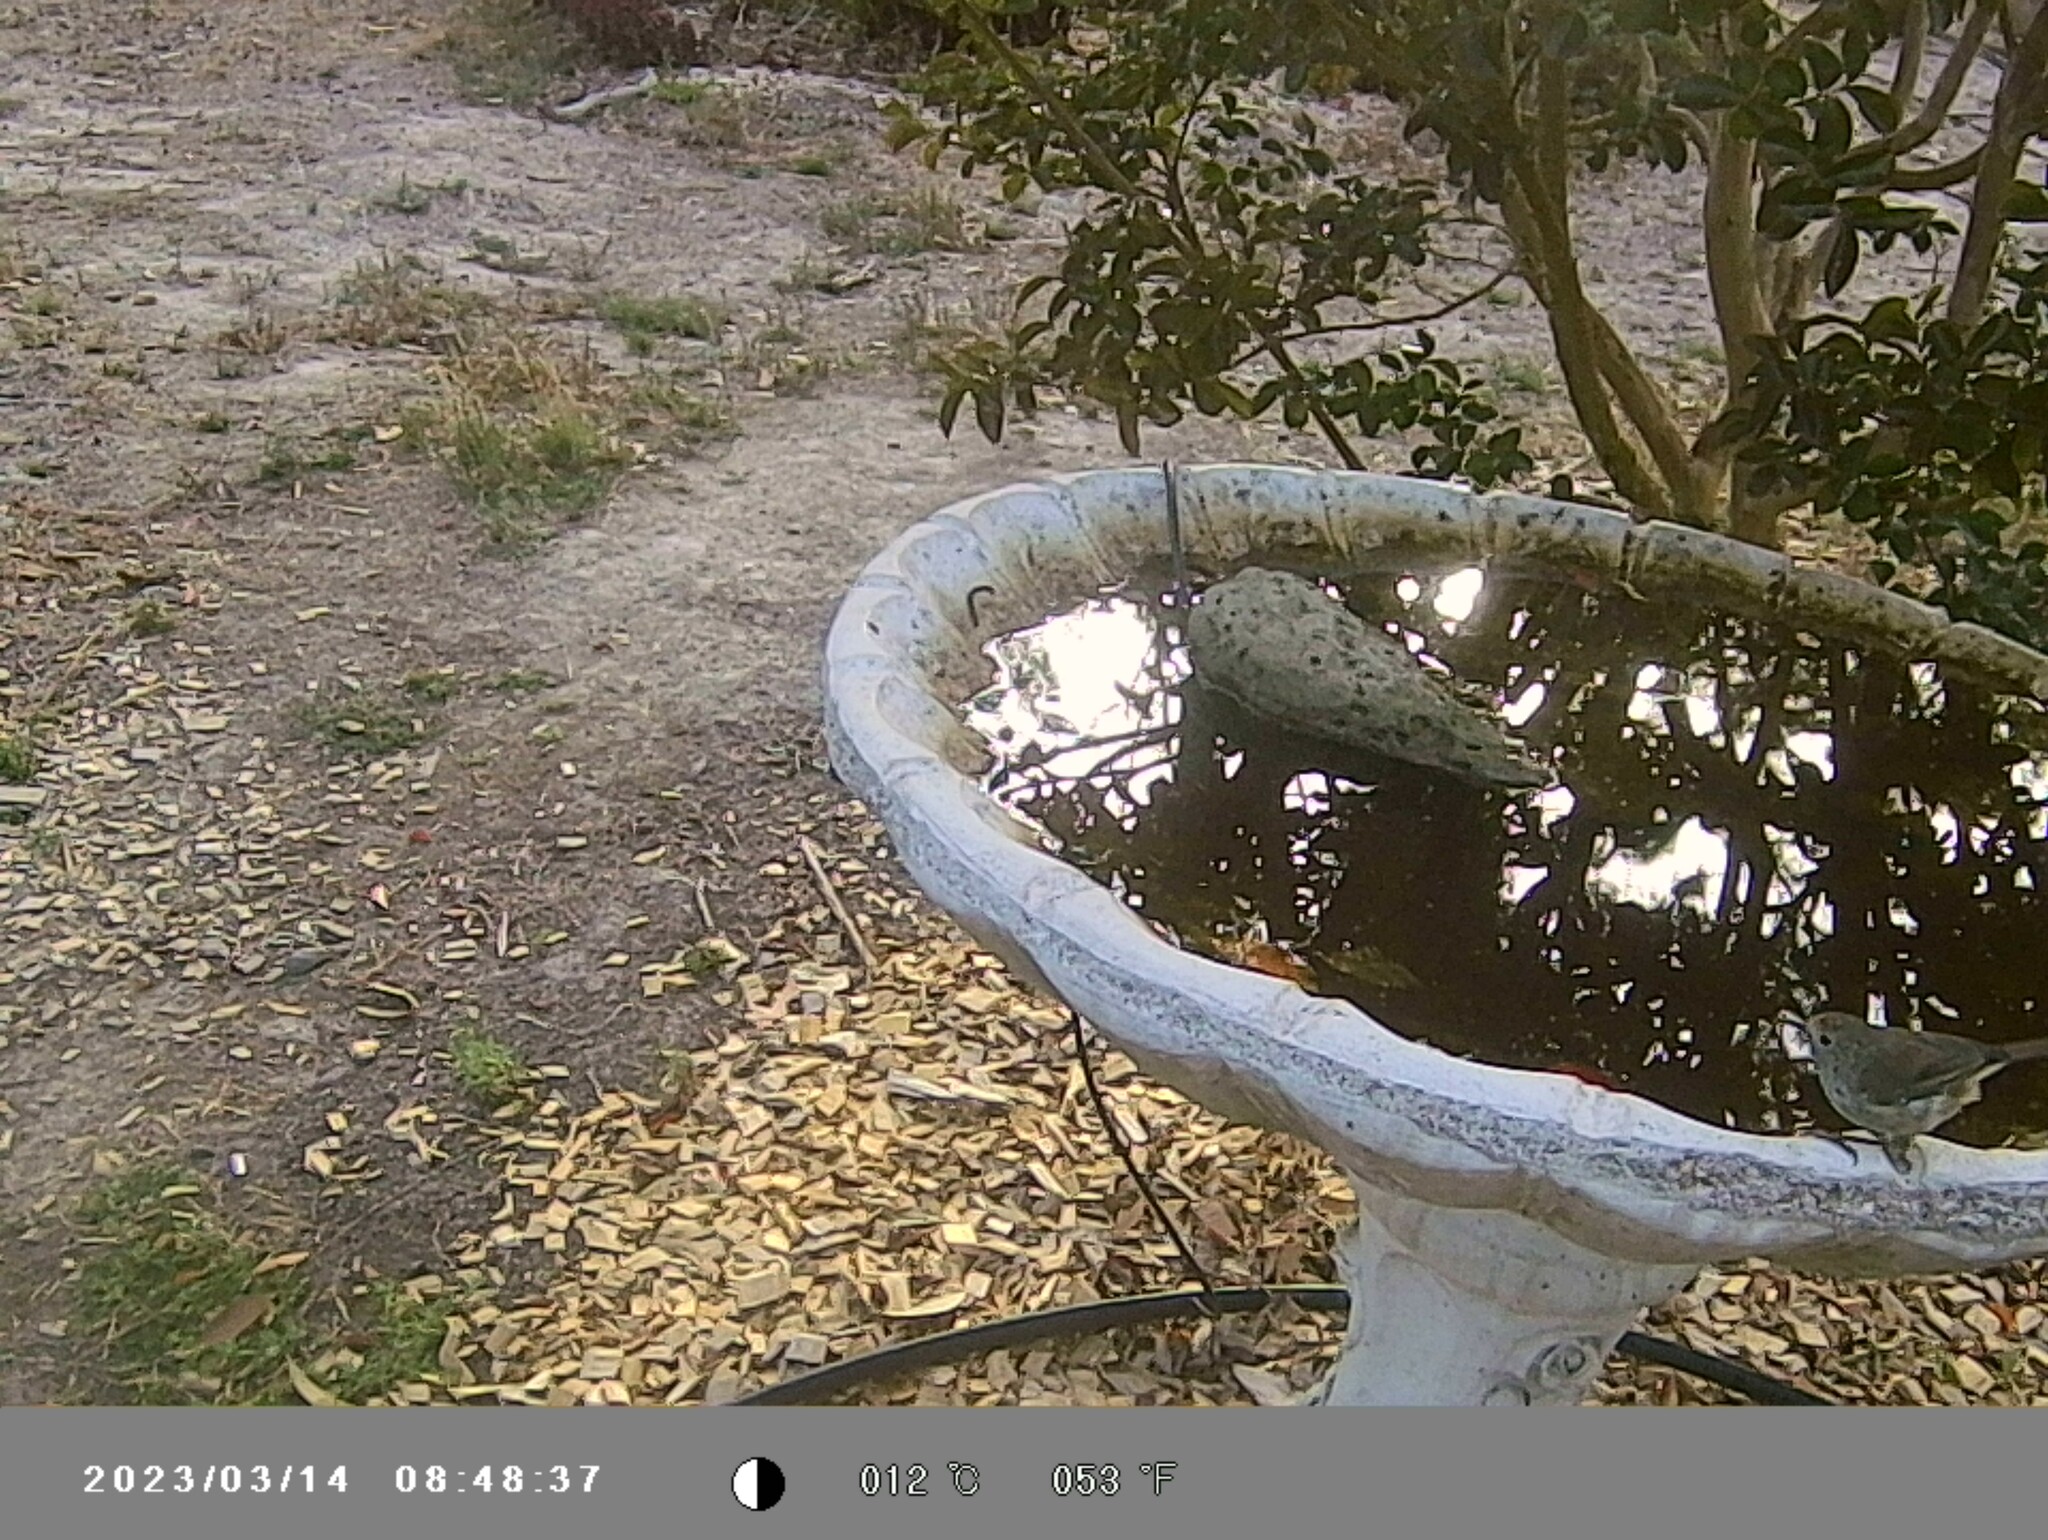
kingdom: Animalia
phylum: Chordata
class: Aves
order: Passeriformes
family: Acanthizidae
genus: Acanthiza
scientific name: Acanthiza pusilla
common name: Brown thornbill
